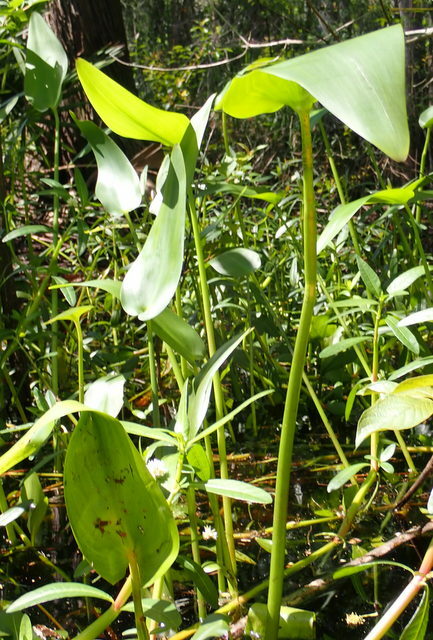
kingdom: Plantae
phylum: Tracheophyta
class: Liliopsida
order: Commelinales
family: Pontederiaceae
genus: Pontederia
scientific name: Pontederia cordata
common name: Pickerelweed
